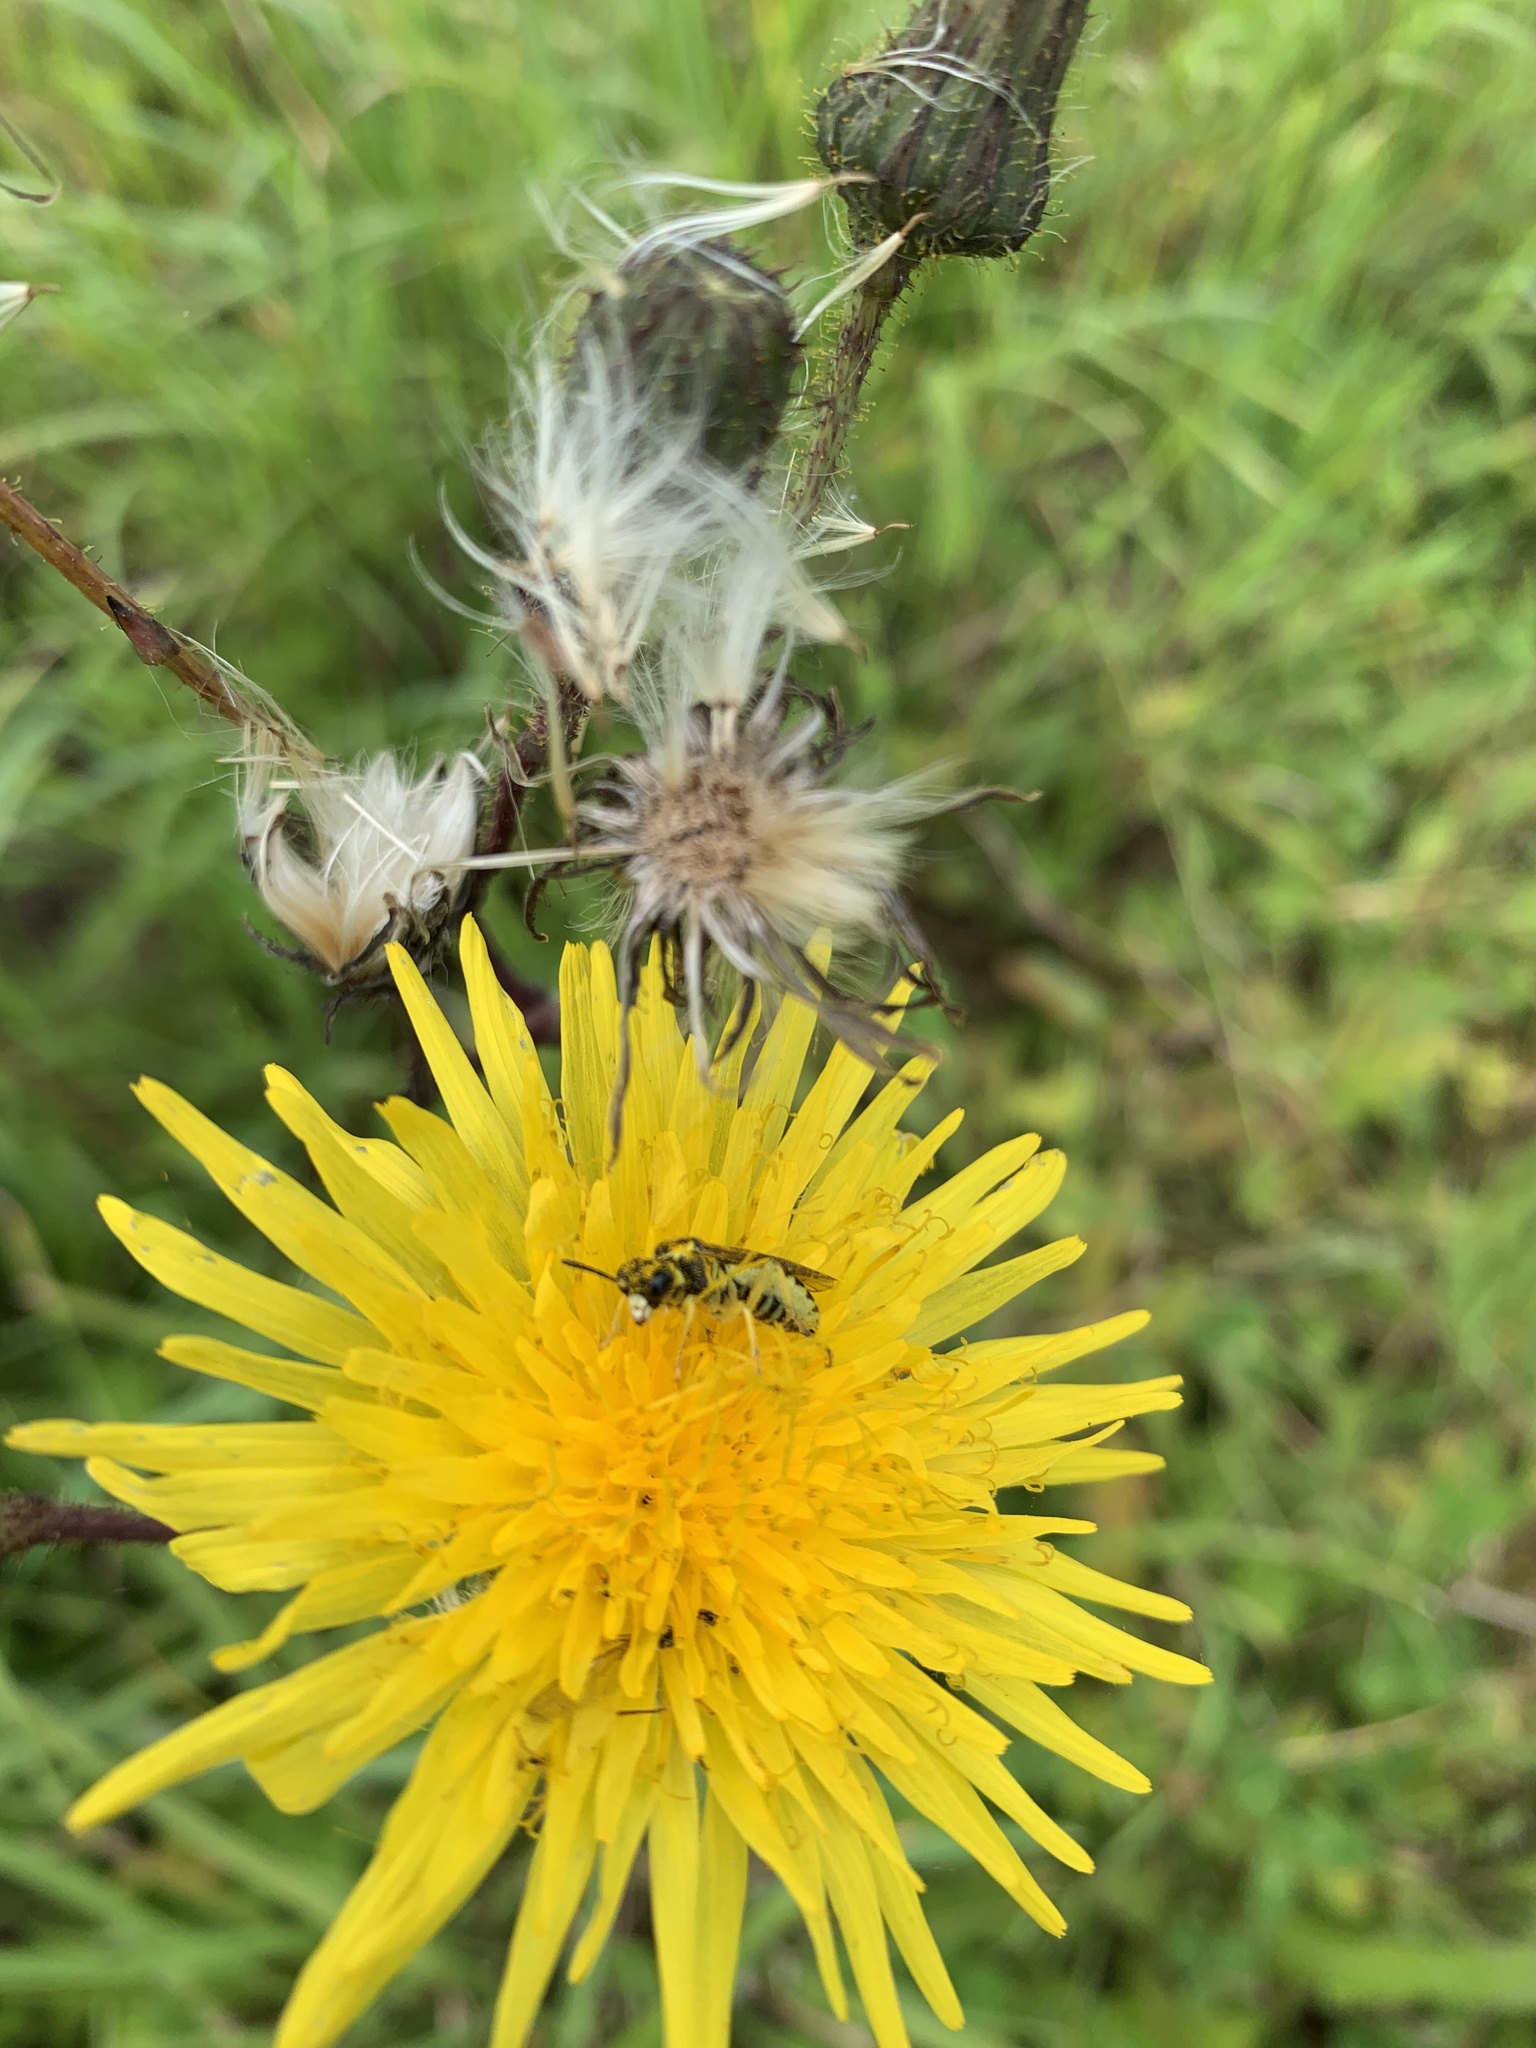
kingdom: Animalia
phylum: Arthropoda
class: Insecta
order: Hymenoptera
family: Tenthredinidae
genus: Tenthredo
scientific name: Tenthredo notha
